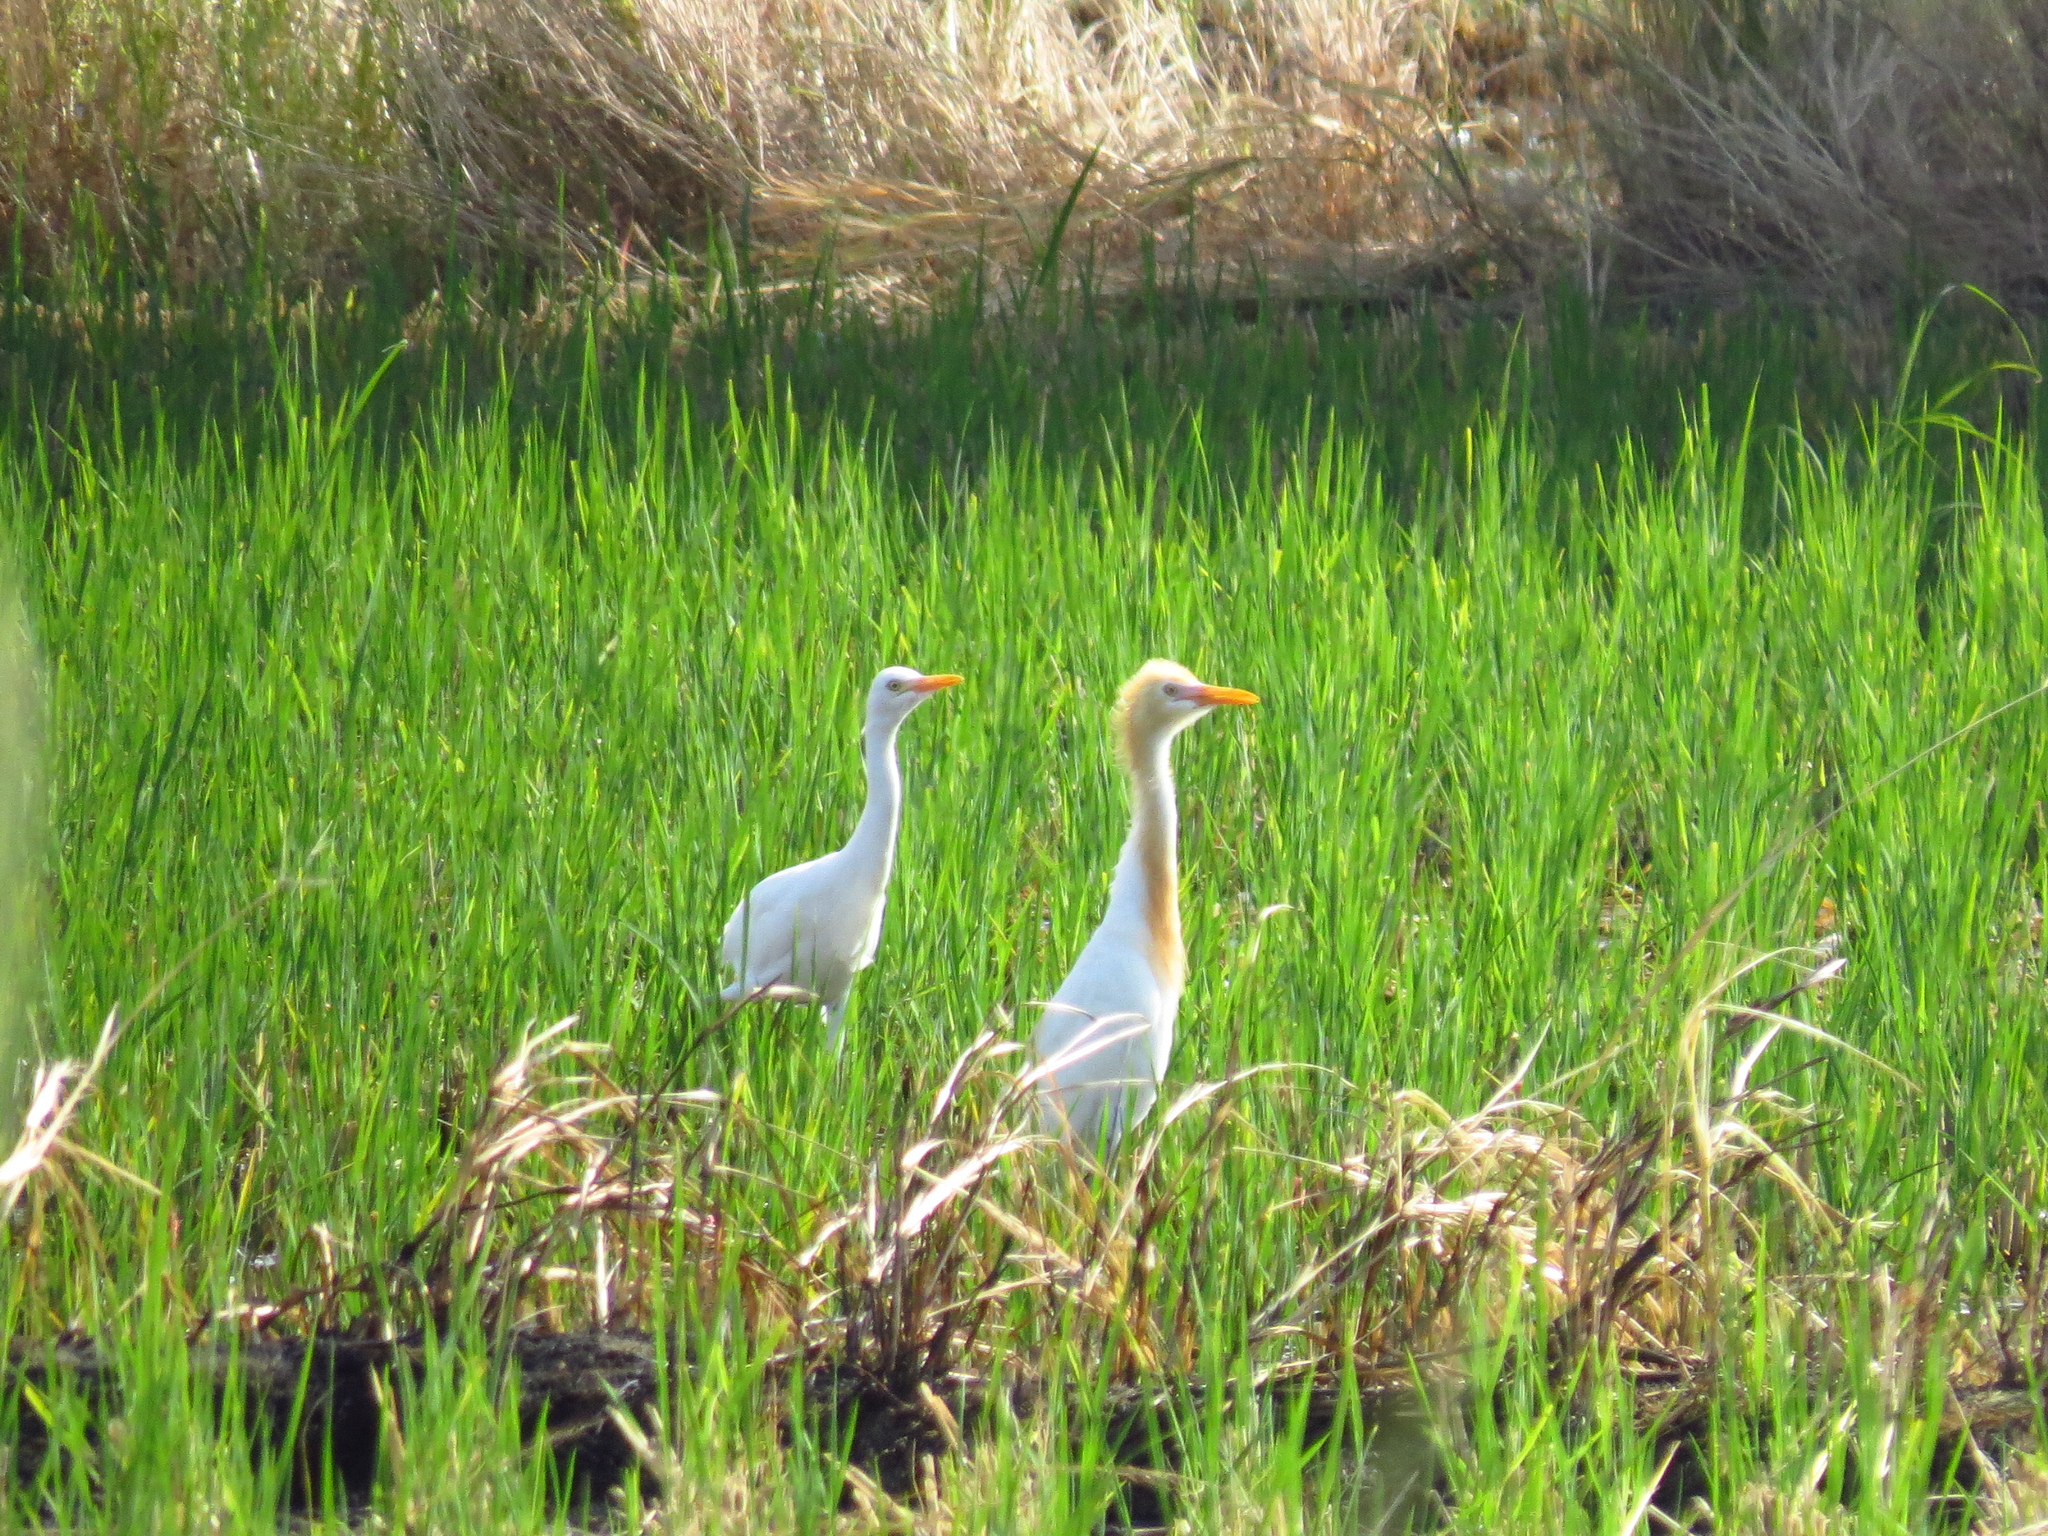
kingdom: Animalia
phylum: Chordata
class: Aves
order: Pelecaniformes
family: Ardeidae
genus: Bubulcus
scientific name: Bubulcus coromandus
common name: Eastern cattle egret
